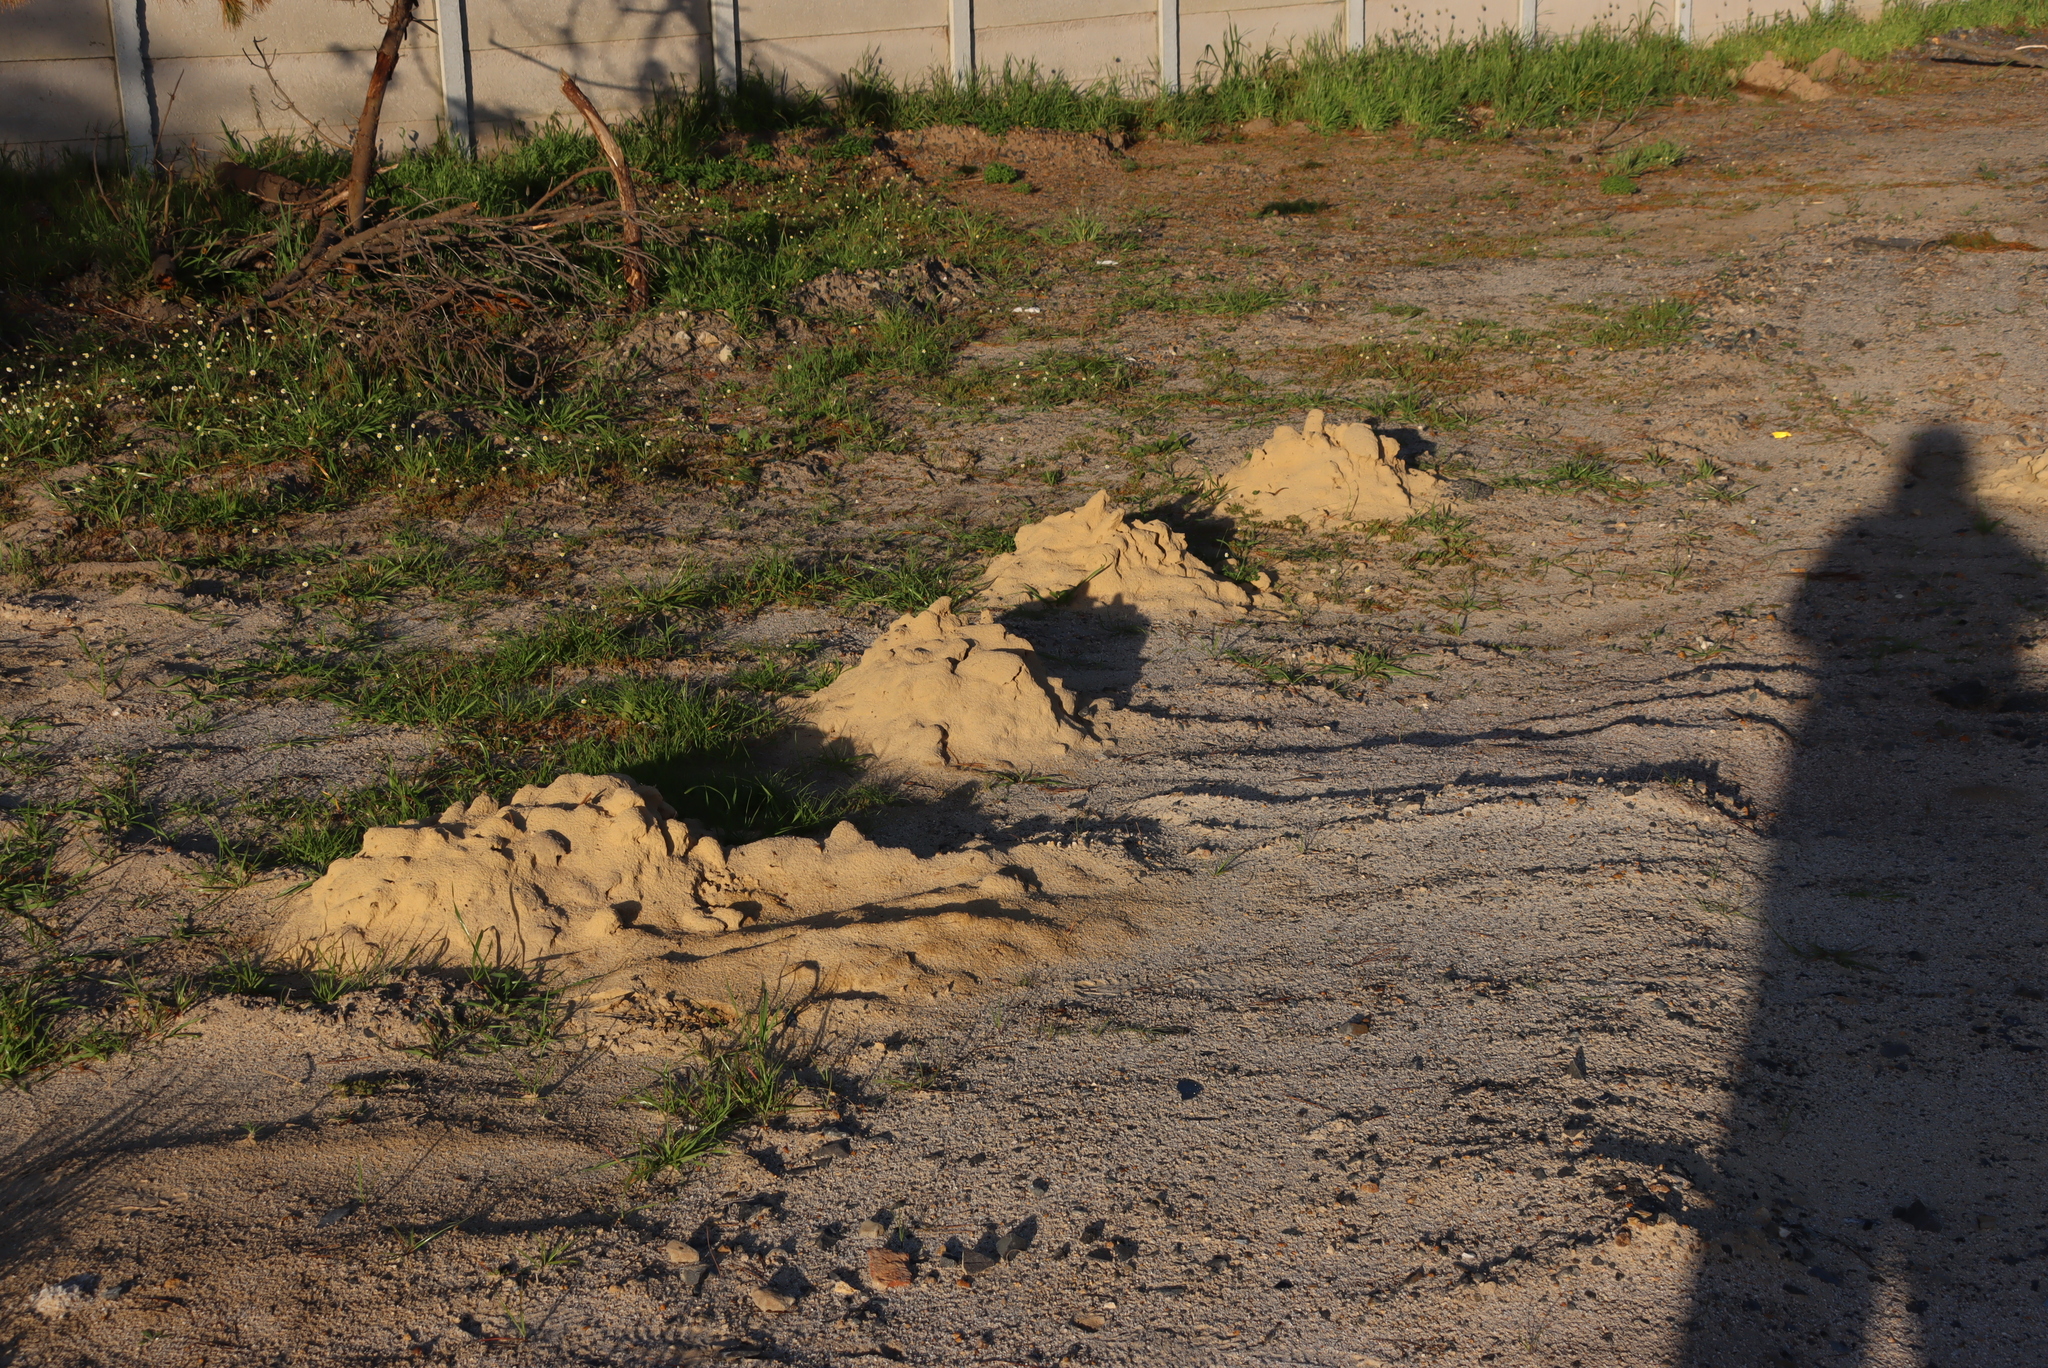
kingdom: Animalia
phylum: Chordata
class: Mammalia
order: Rodentia
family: Bathyergidae
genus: Bathyergus
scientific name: Bathyergus suillus
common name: Cape dune mole rat
